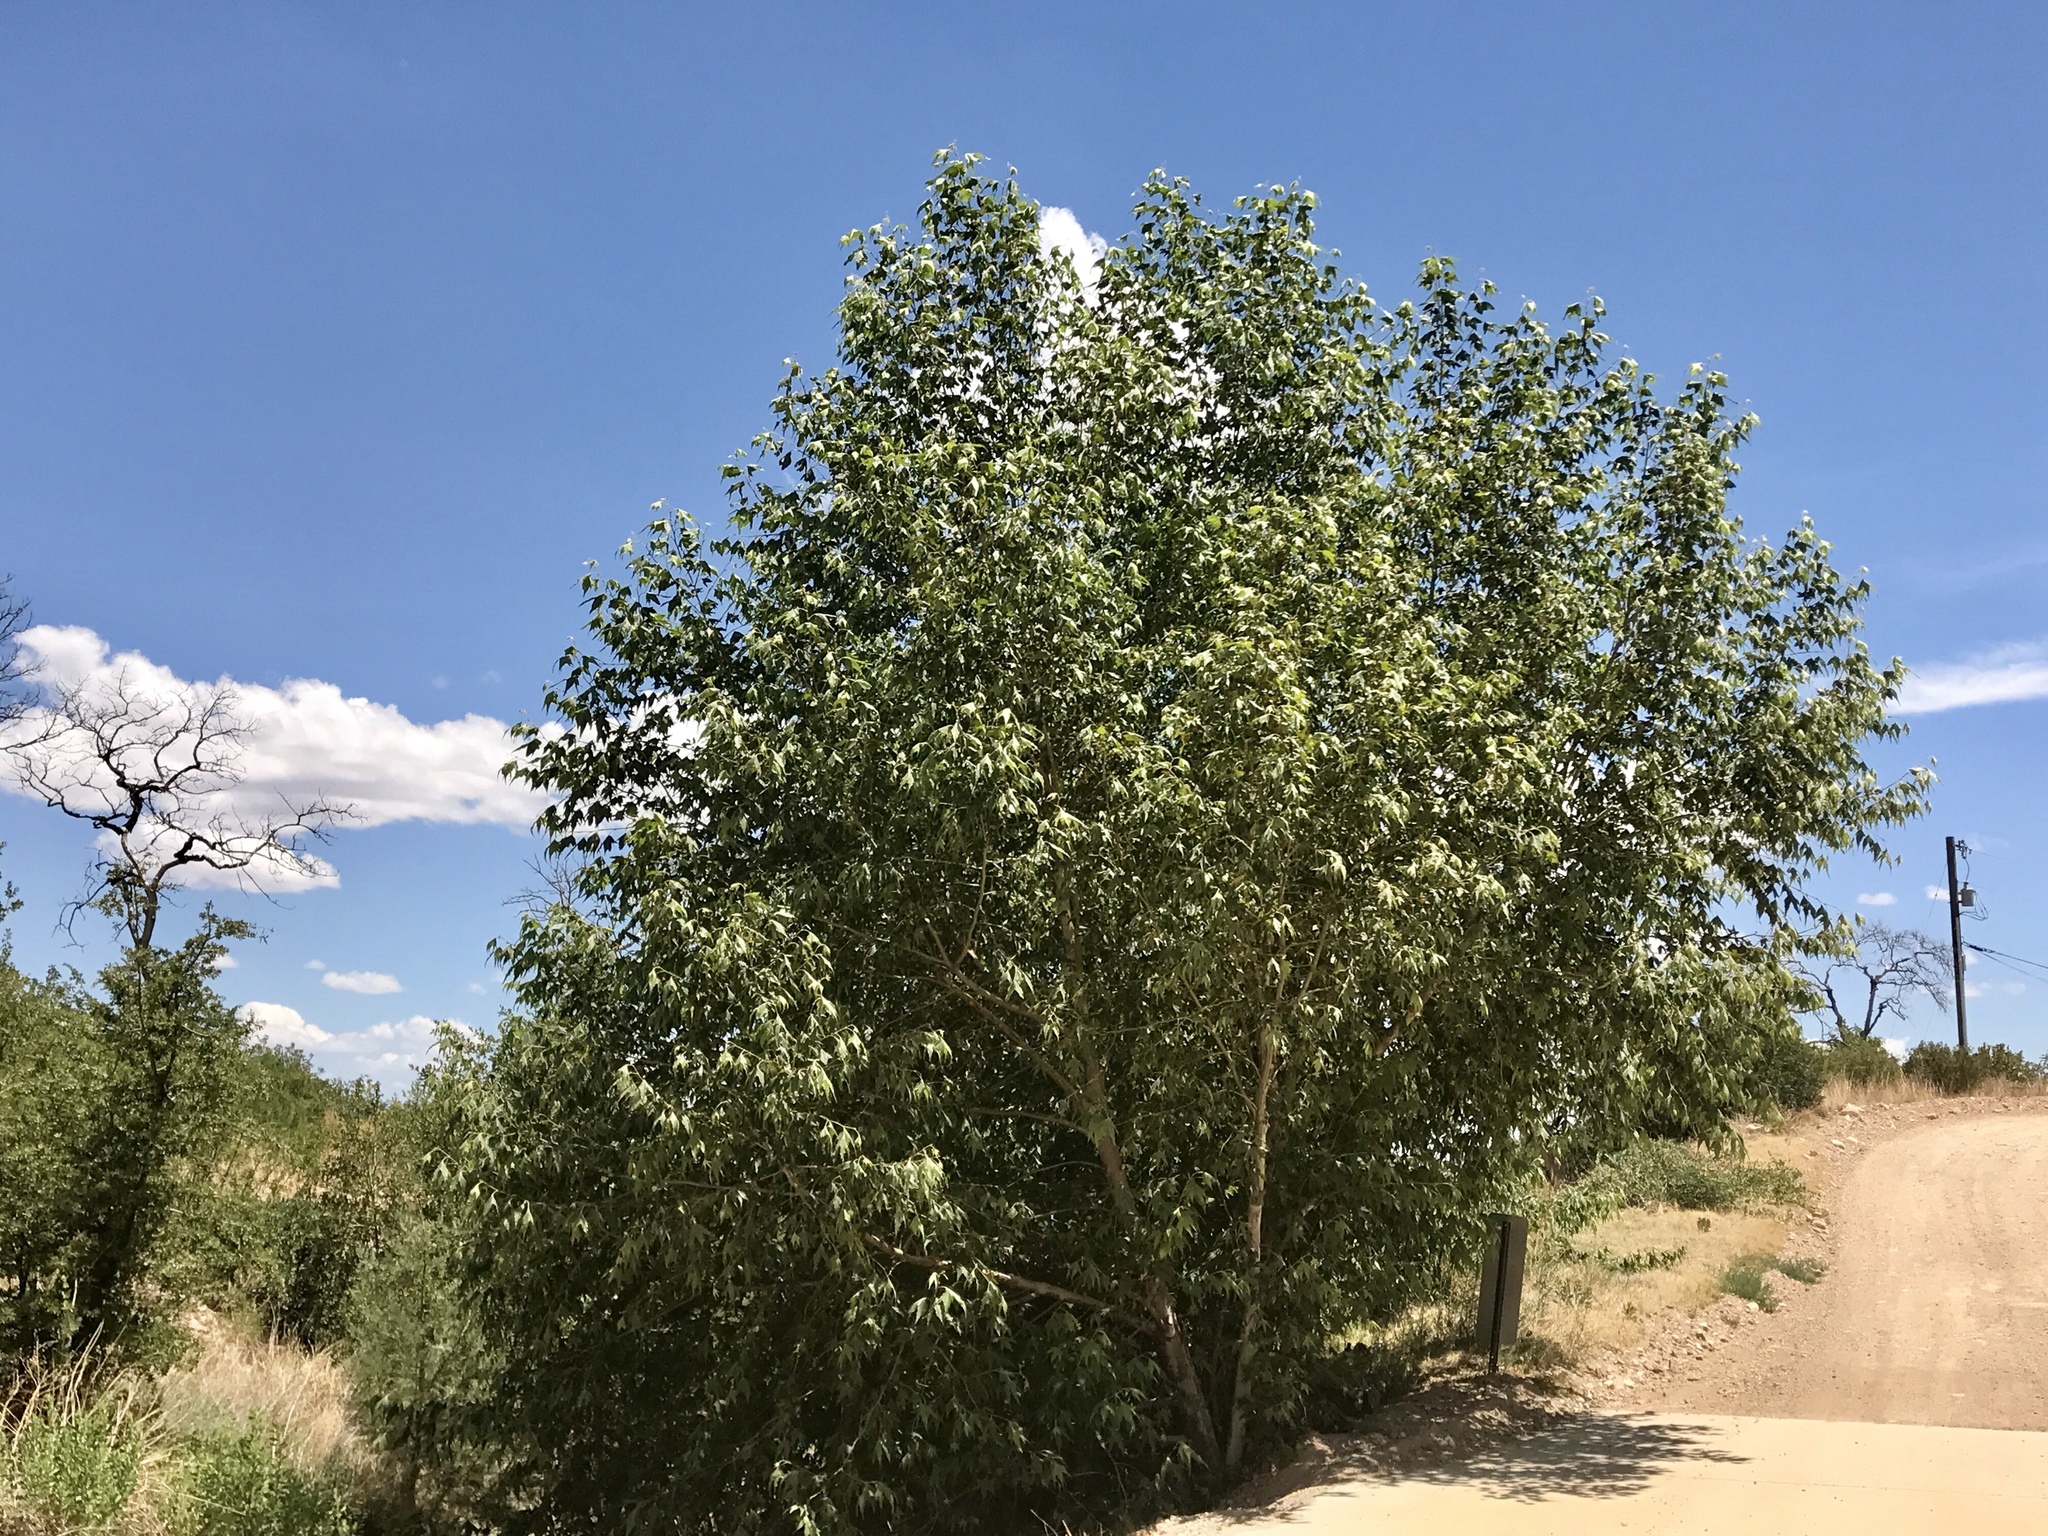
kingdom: Plantae
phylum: Tracheophyta
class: Magnoliopsida
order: Proteales
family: Platanaceae
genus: Platanus
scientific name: Platanus wrightii
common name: Arizona sycamore
